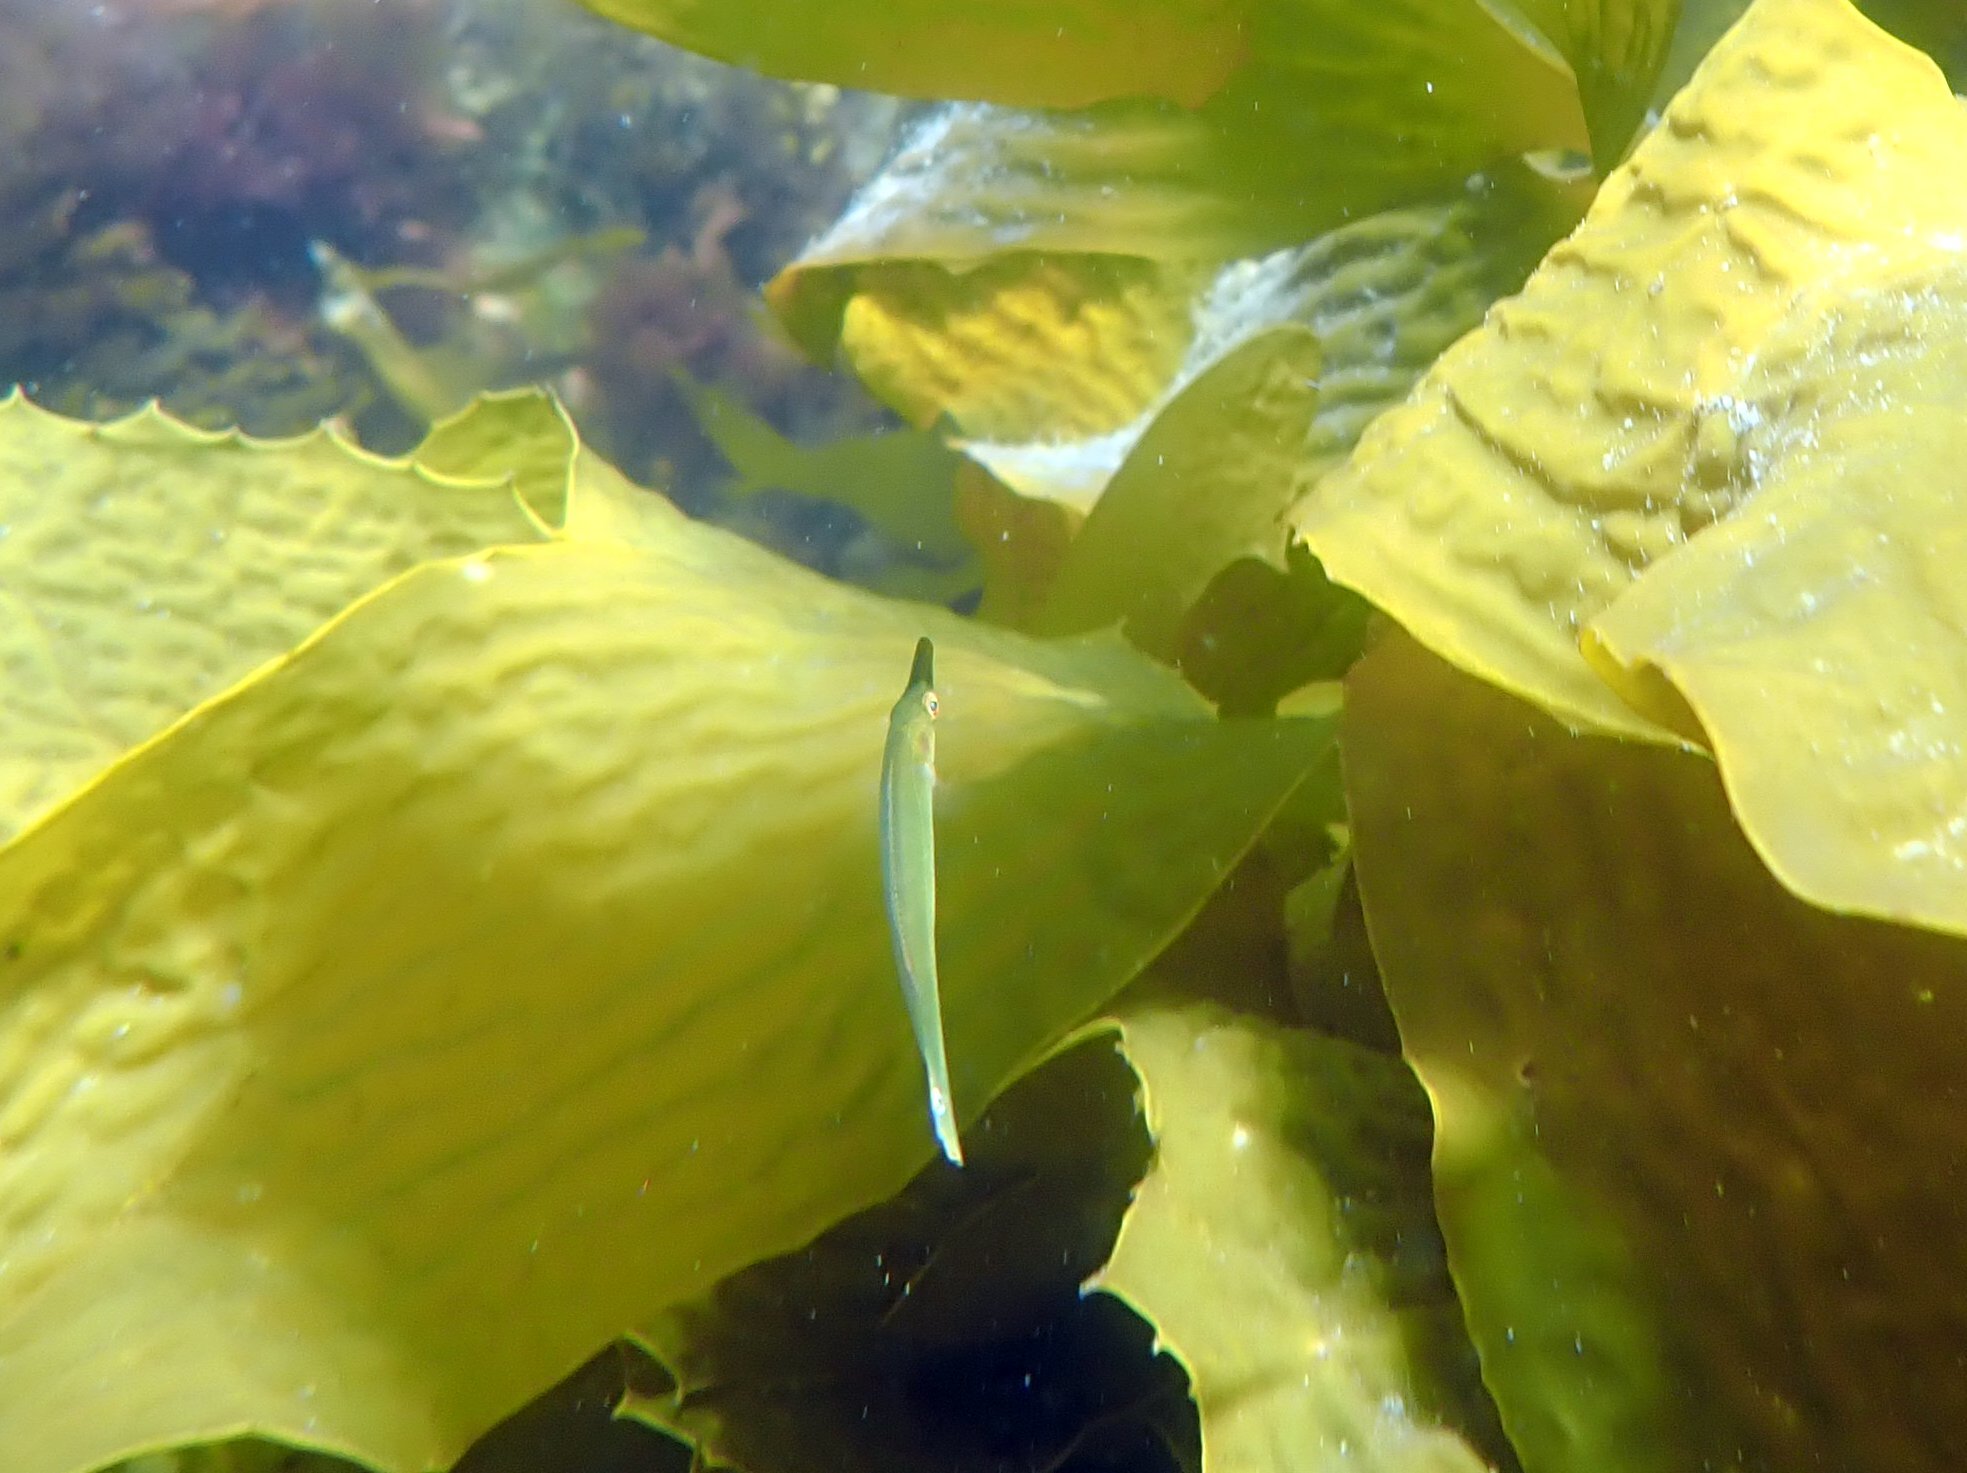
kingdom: Animalia
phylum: Chordata
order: Perciformes
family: Odacidae
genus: Siphonognathus
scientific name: Siphonognathus
